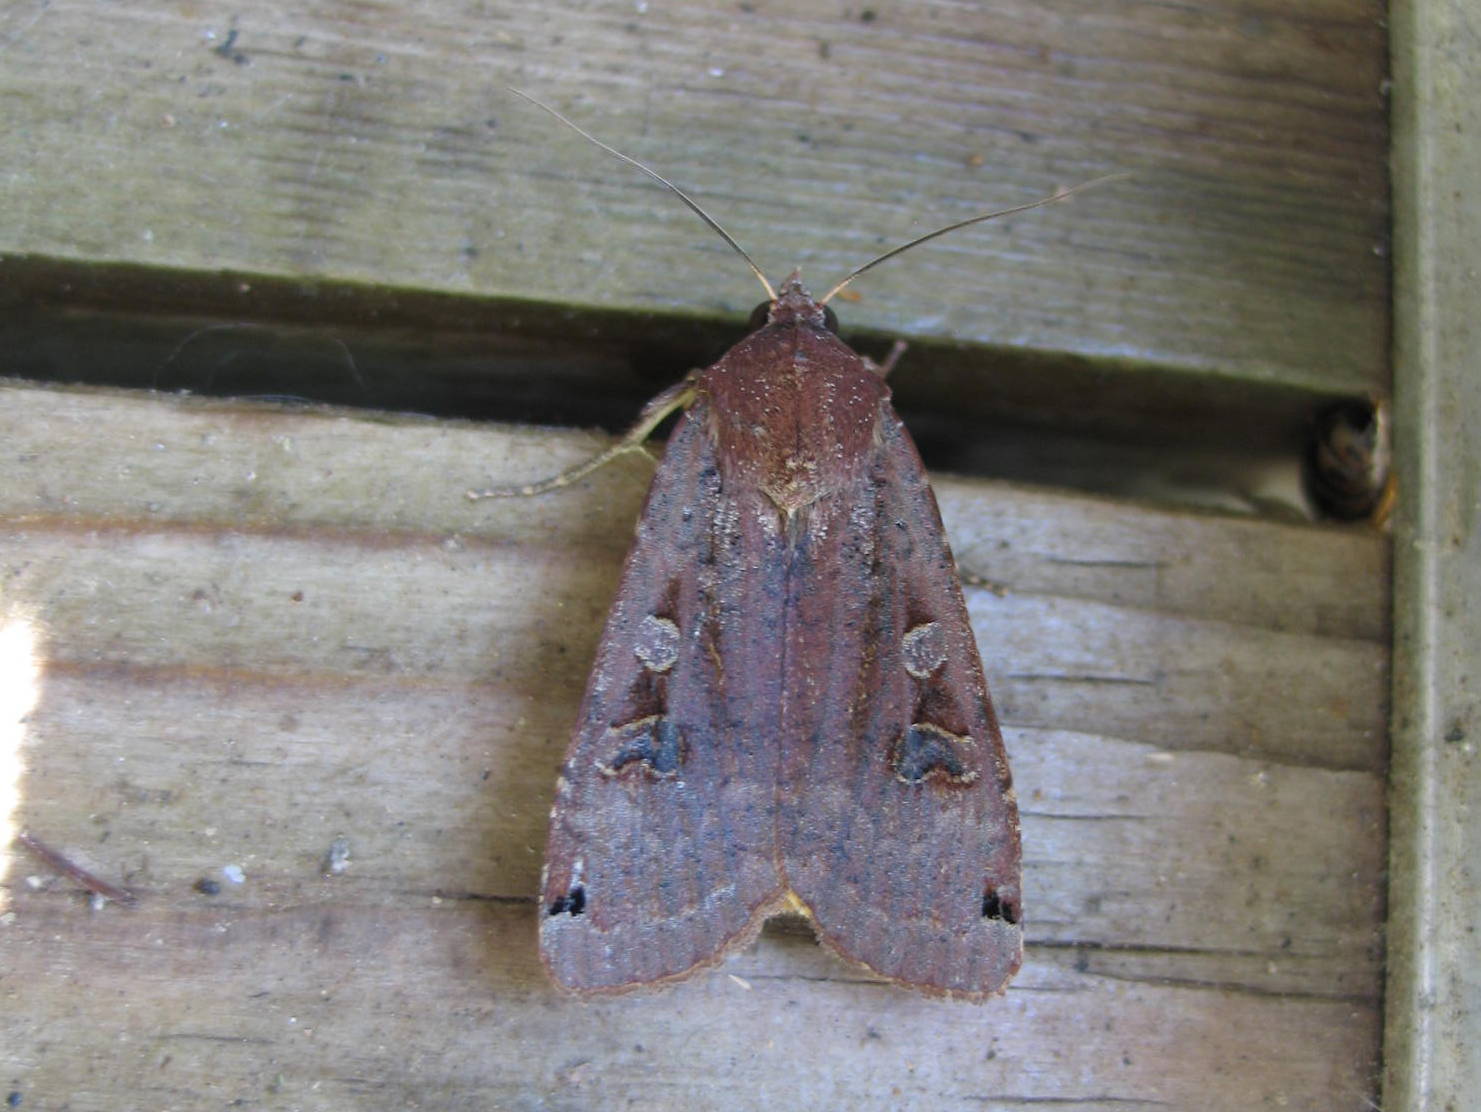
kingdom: Animalia
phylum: Arthropoda
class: Insecta
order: Lepidoptera
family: Noctuidae
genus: Noctua
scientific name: Noctua pronuba
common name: Large yellow underwing
